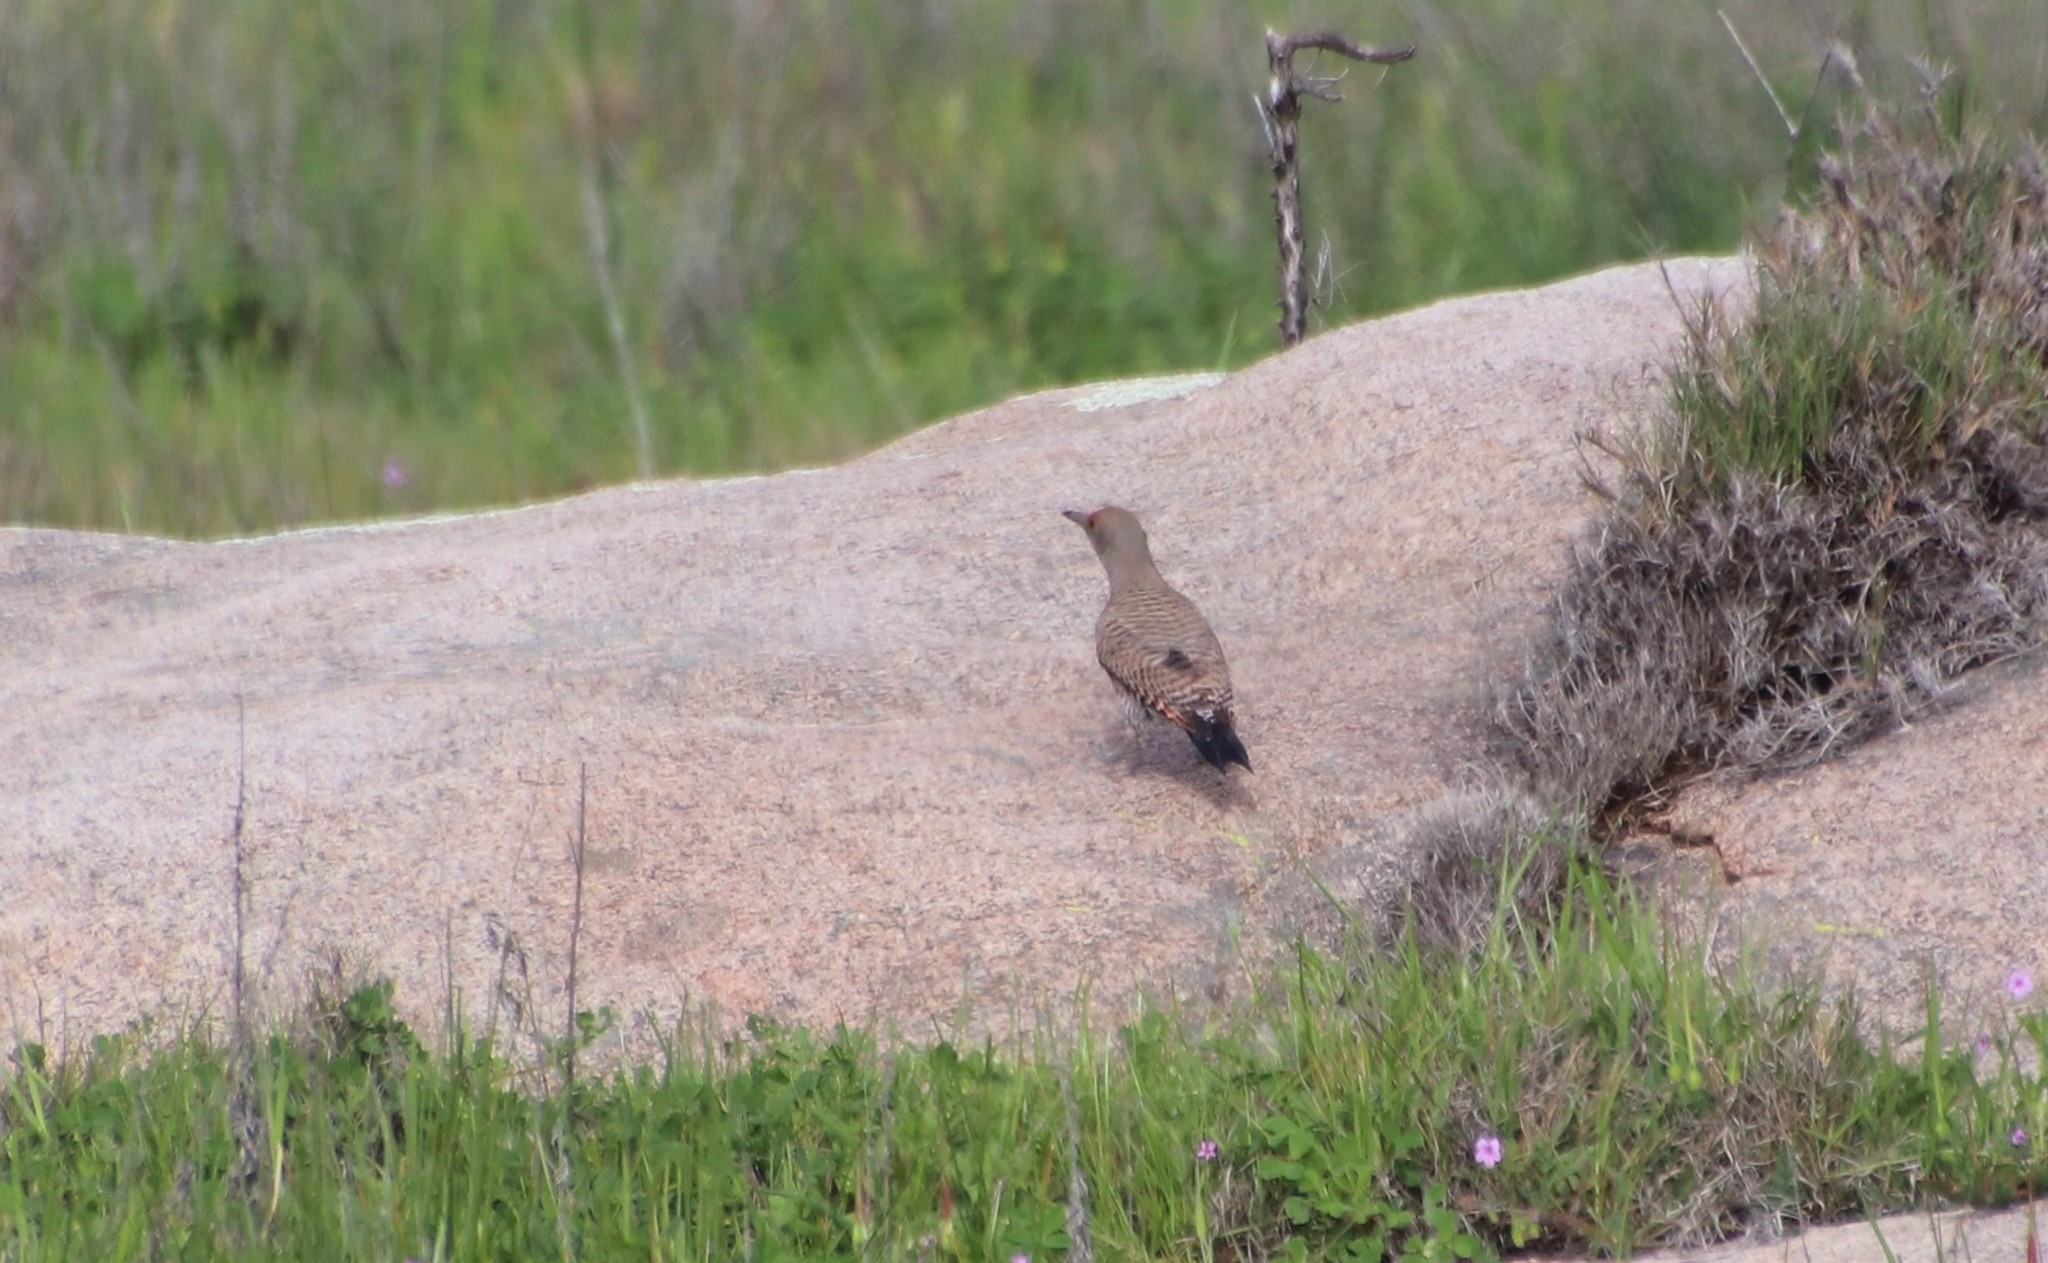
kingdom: Animalia
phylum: Chordata
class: Aves
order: Piciformes
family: Picidae
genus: Colaptes
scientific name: Colaptes auratus
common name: Northern flicker
